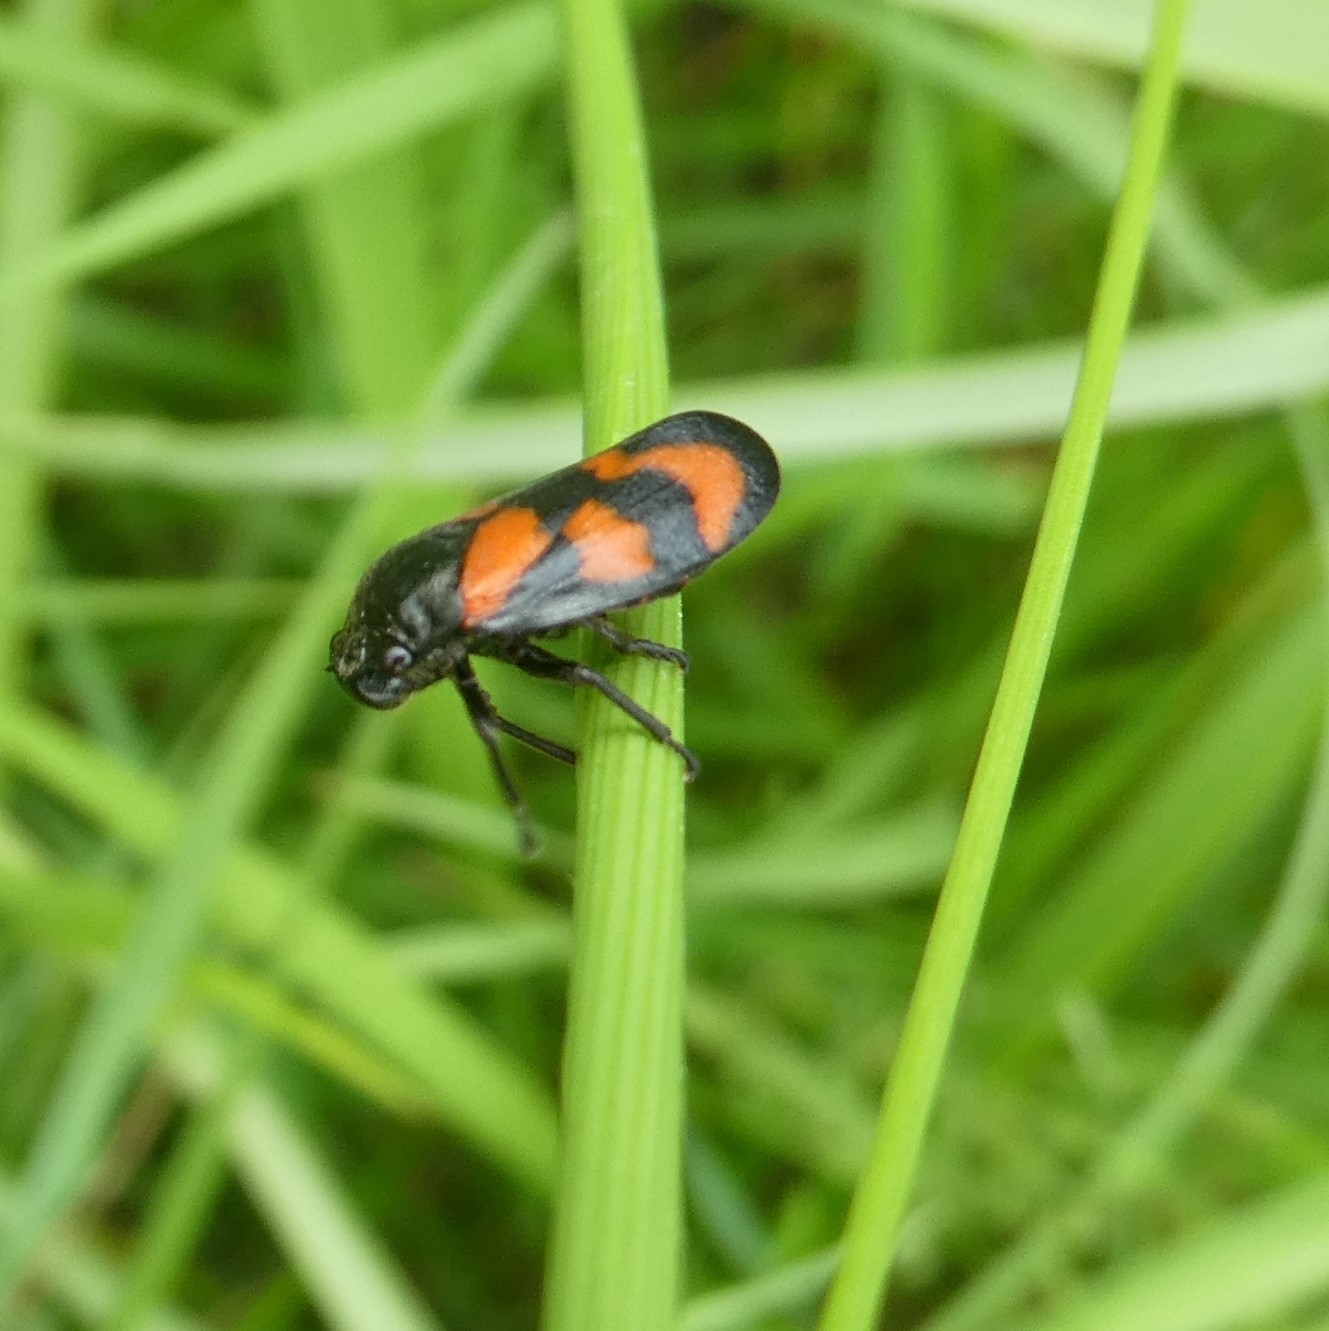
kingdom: Animalia
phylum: Arthropoda
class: Insecta
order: Hemiptera
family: Cercopidae
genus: Cercopis
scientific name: Cercopis vulnerata
